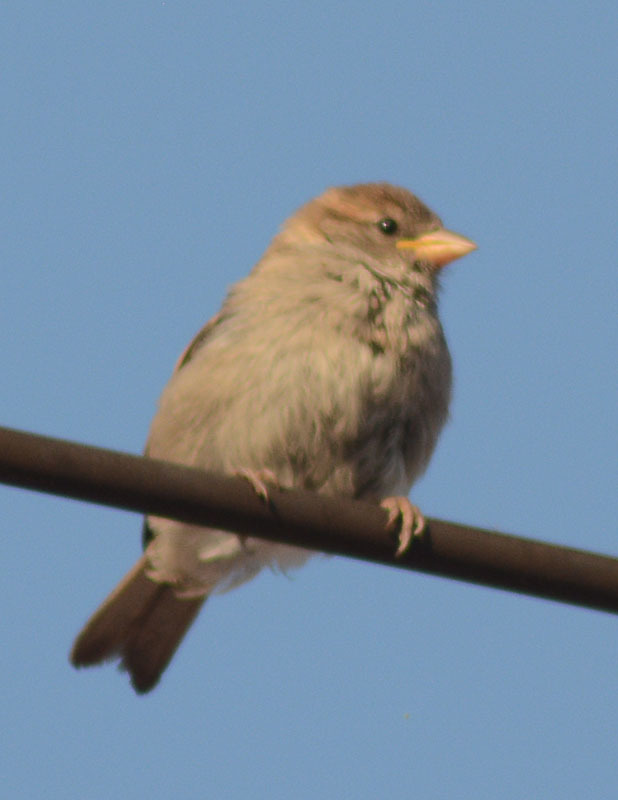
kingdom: Animalia
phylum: Chordata
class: Aves
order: Passeriformes
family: Passeridae
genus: Passer
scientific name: Passer domesticus
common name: House sparrow
